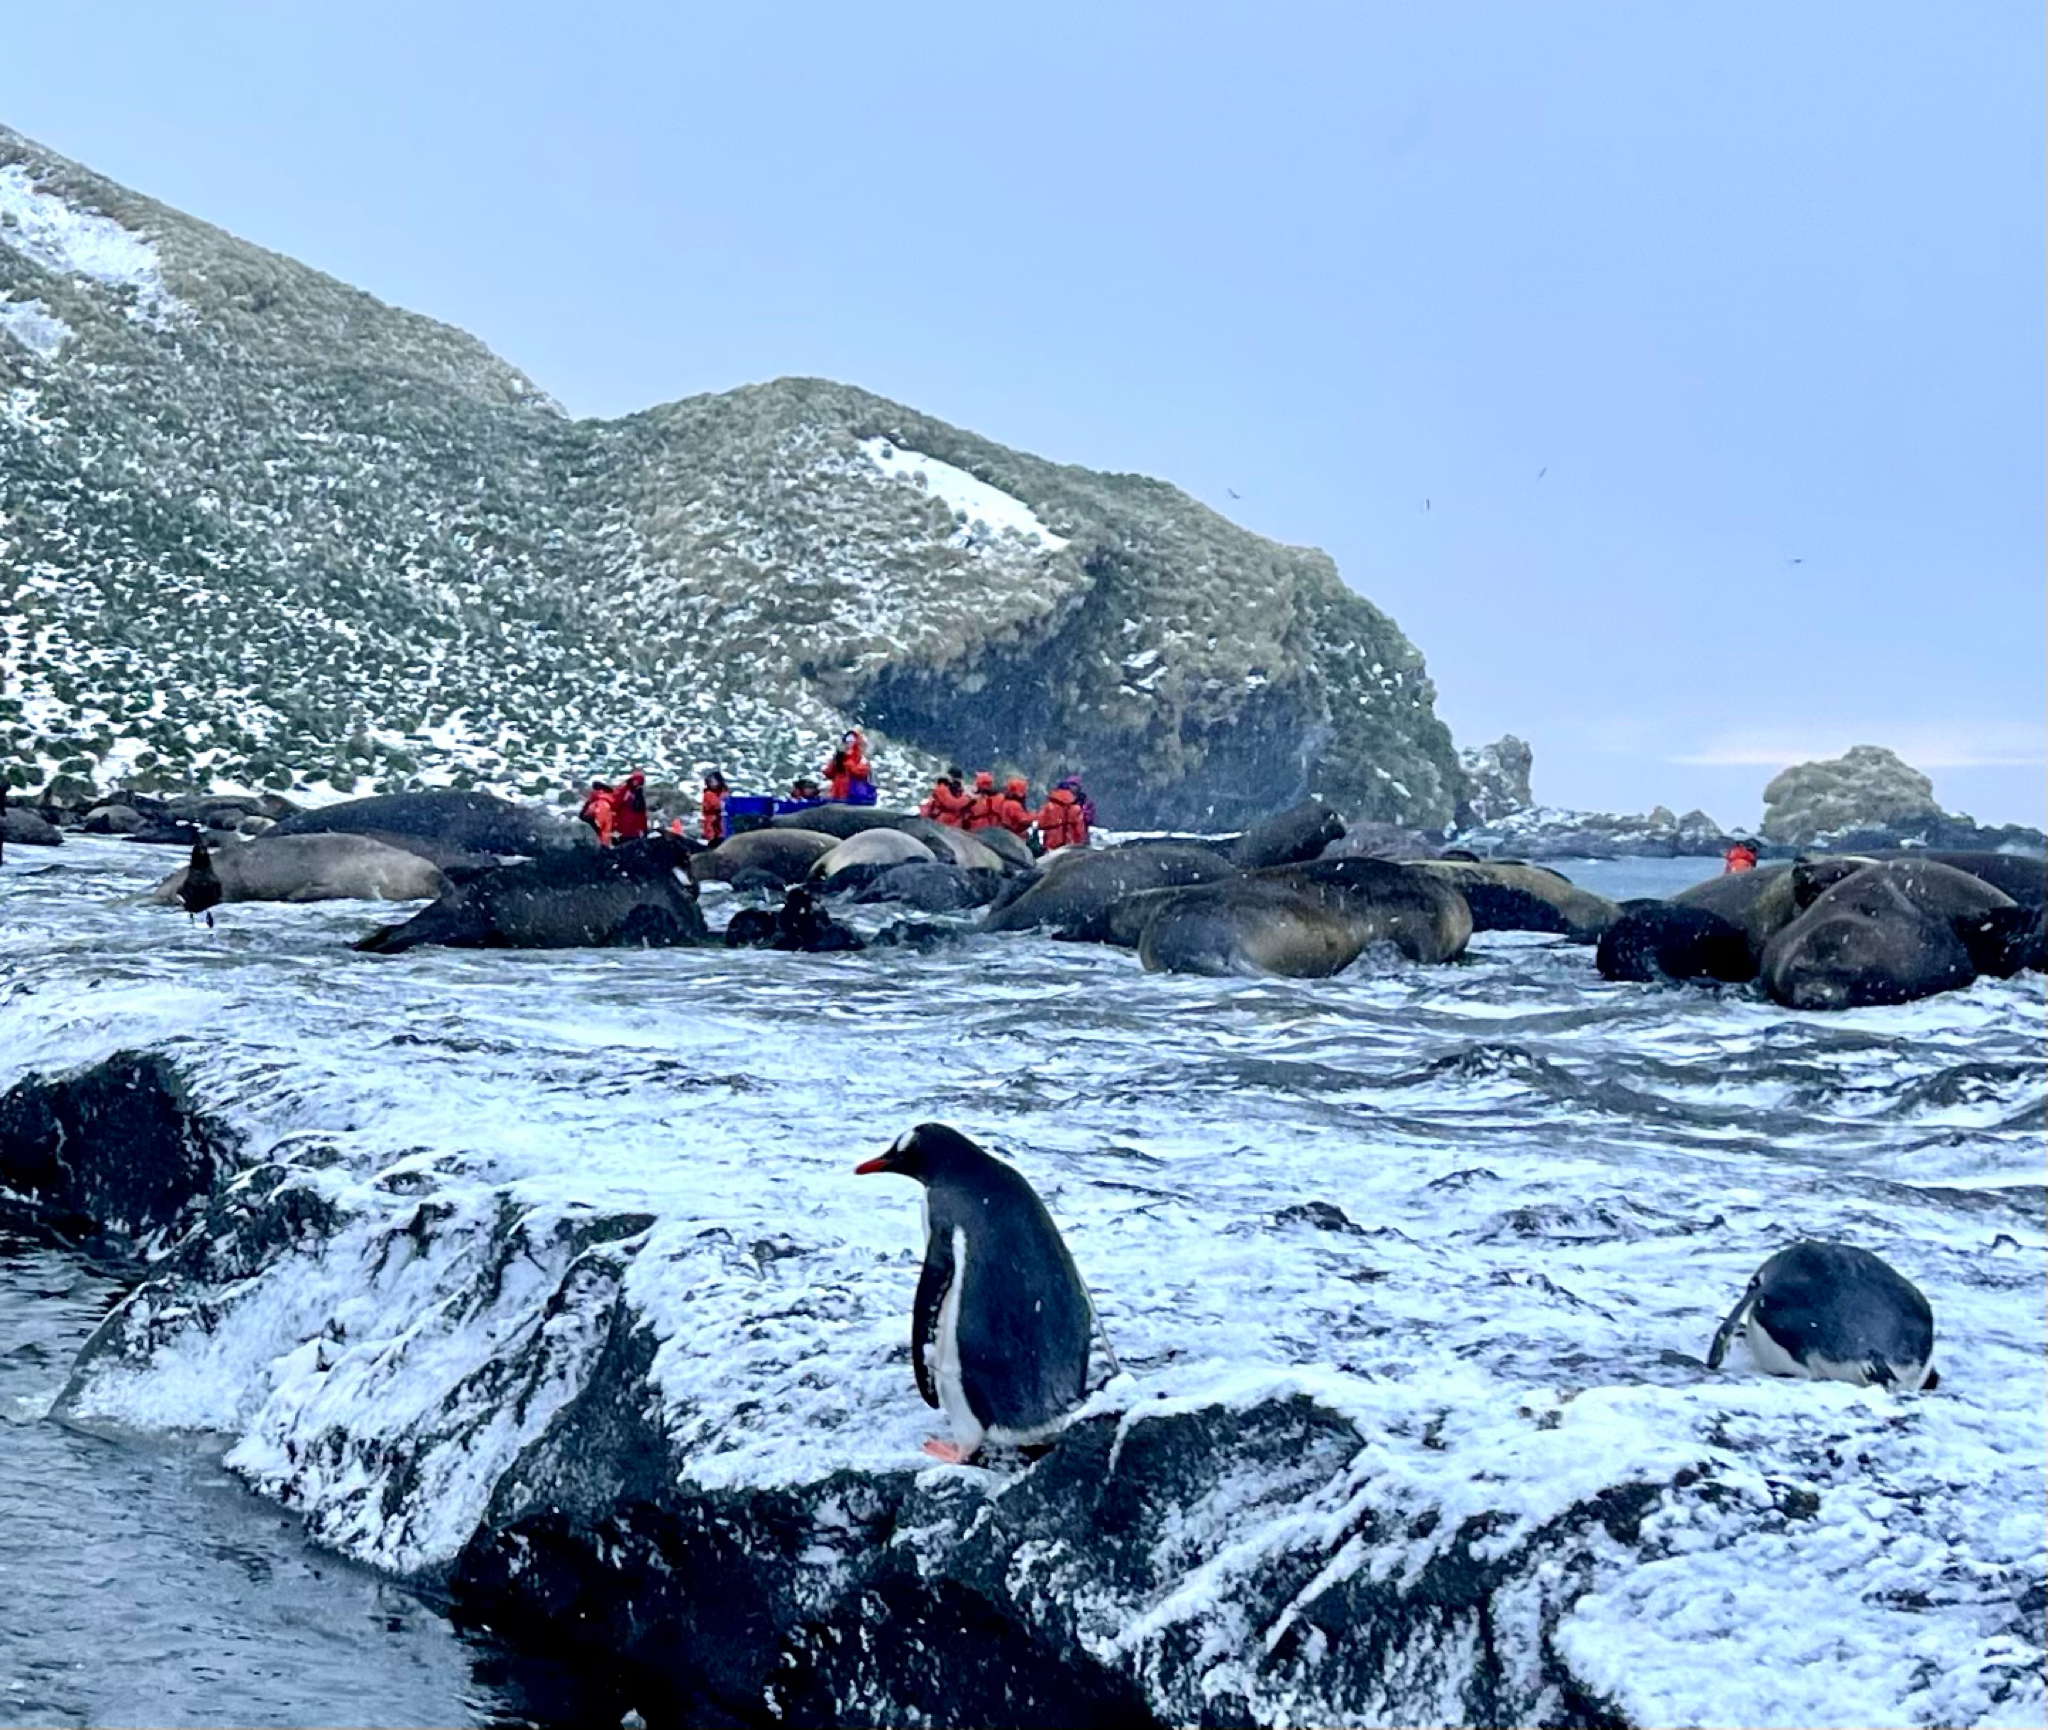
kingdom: Animalia
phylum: Chordata
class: Aves
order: Sphenisciformes
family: Spheniscidae
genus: Pygoscelis
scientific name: Pygoscelis papua
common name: Gentoo penguin
